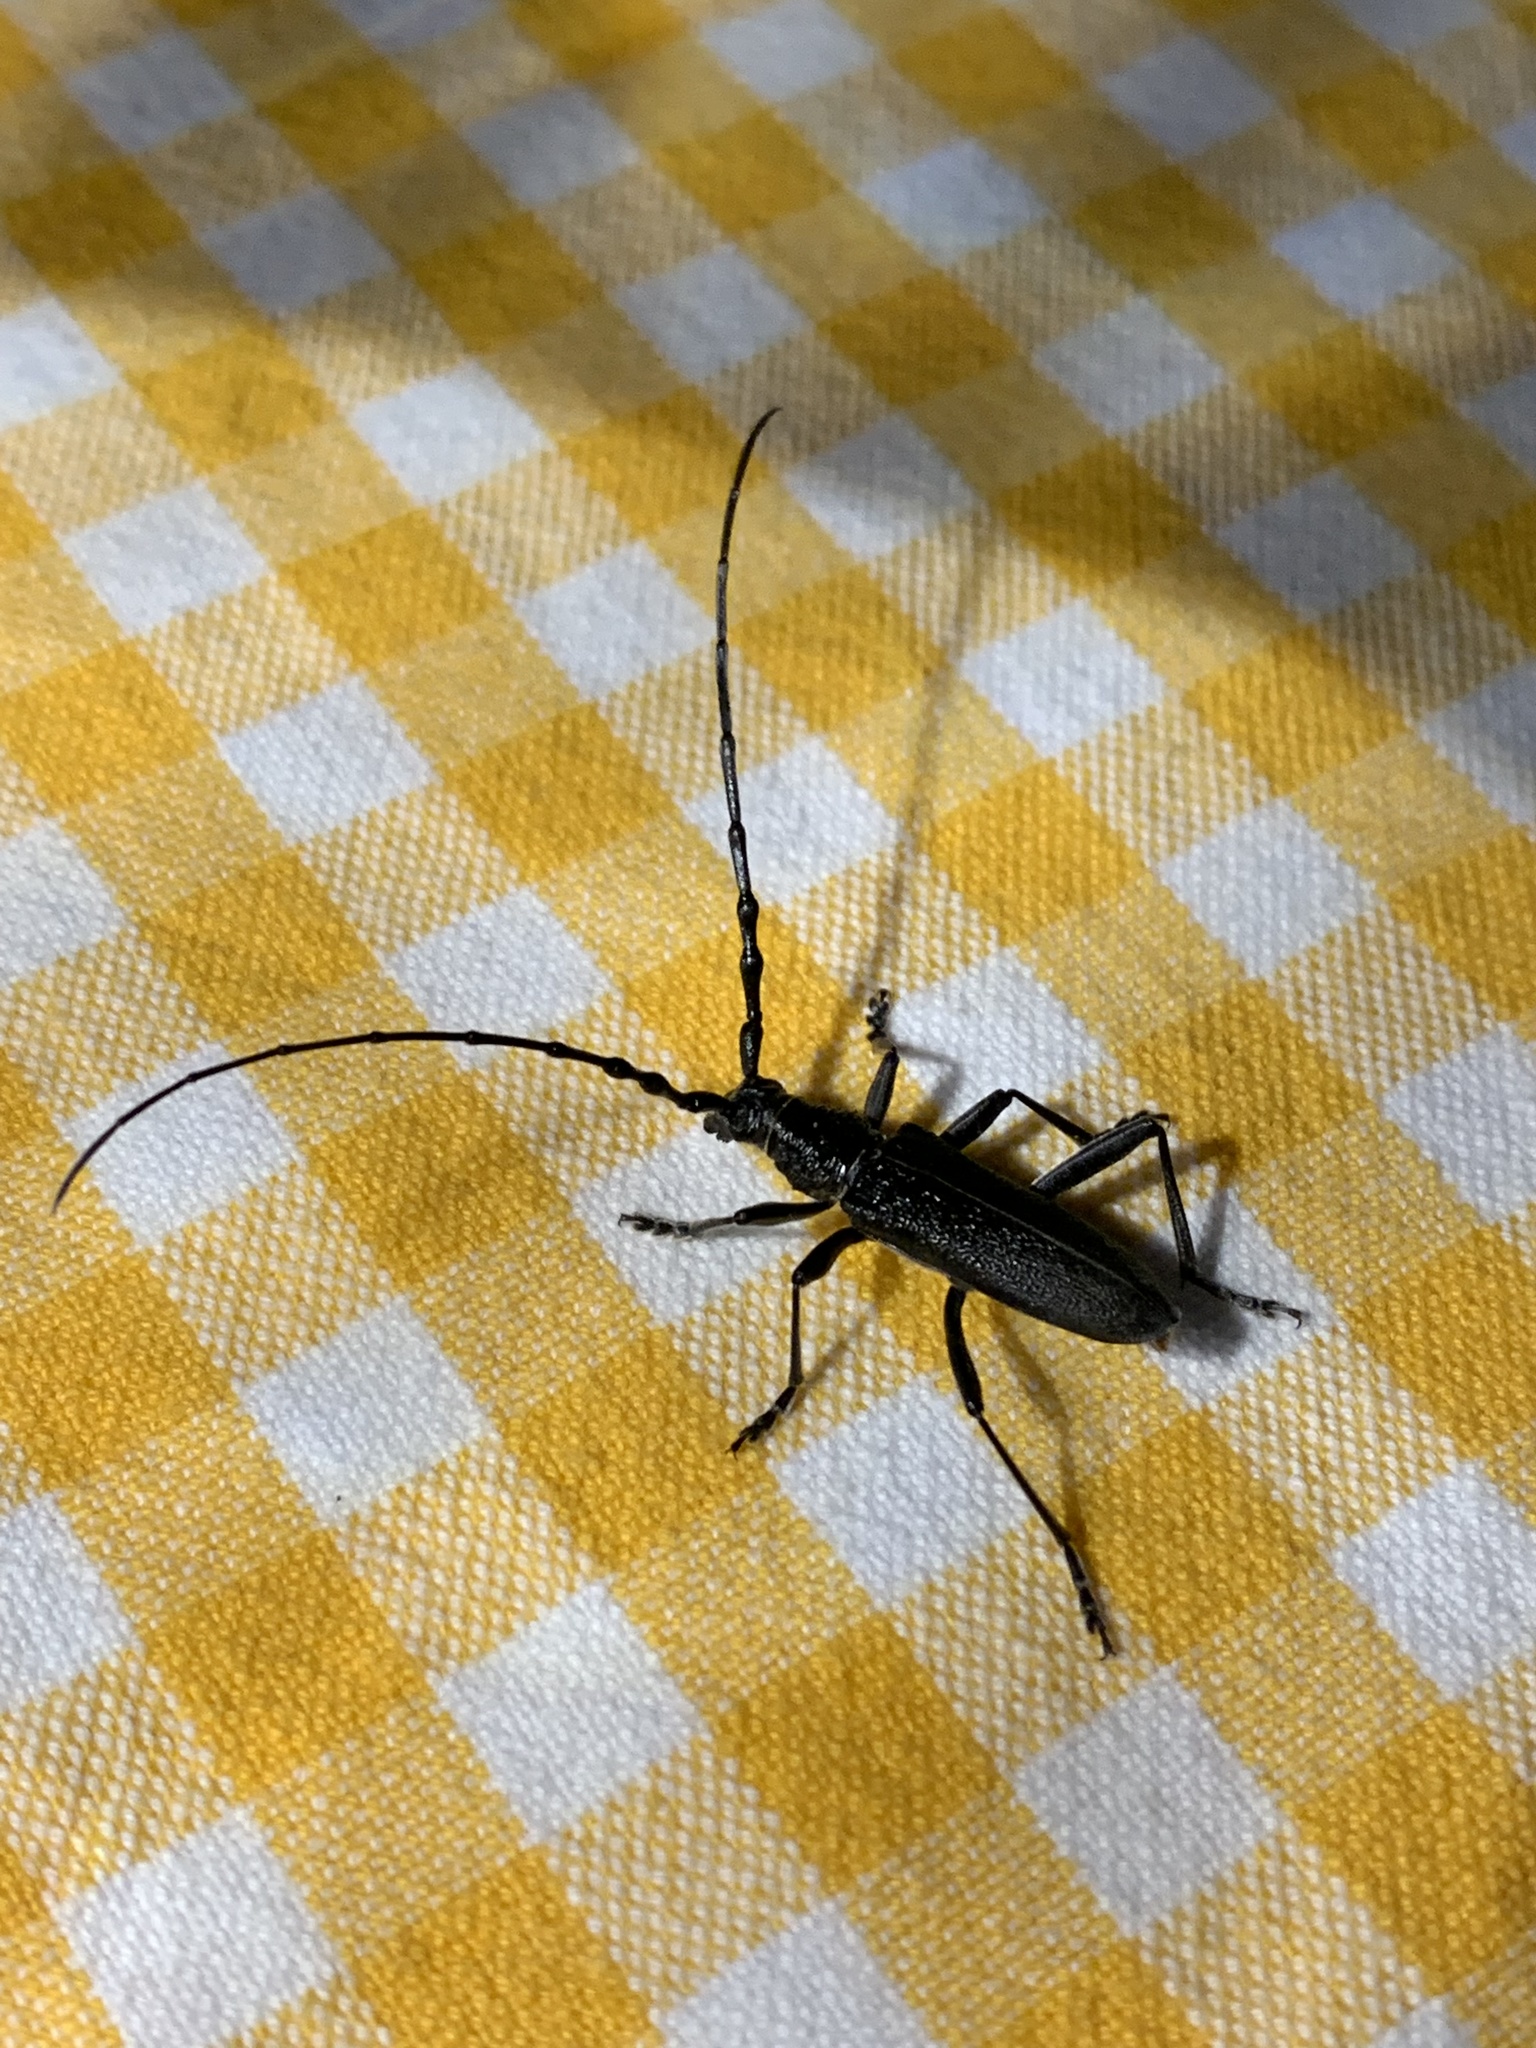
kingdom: Animalia
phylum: Arthropoda
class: Insecta
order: Coleoptera
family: Cerambycidae
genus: Cerambyx
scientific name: Cerambyx scopolii
